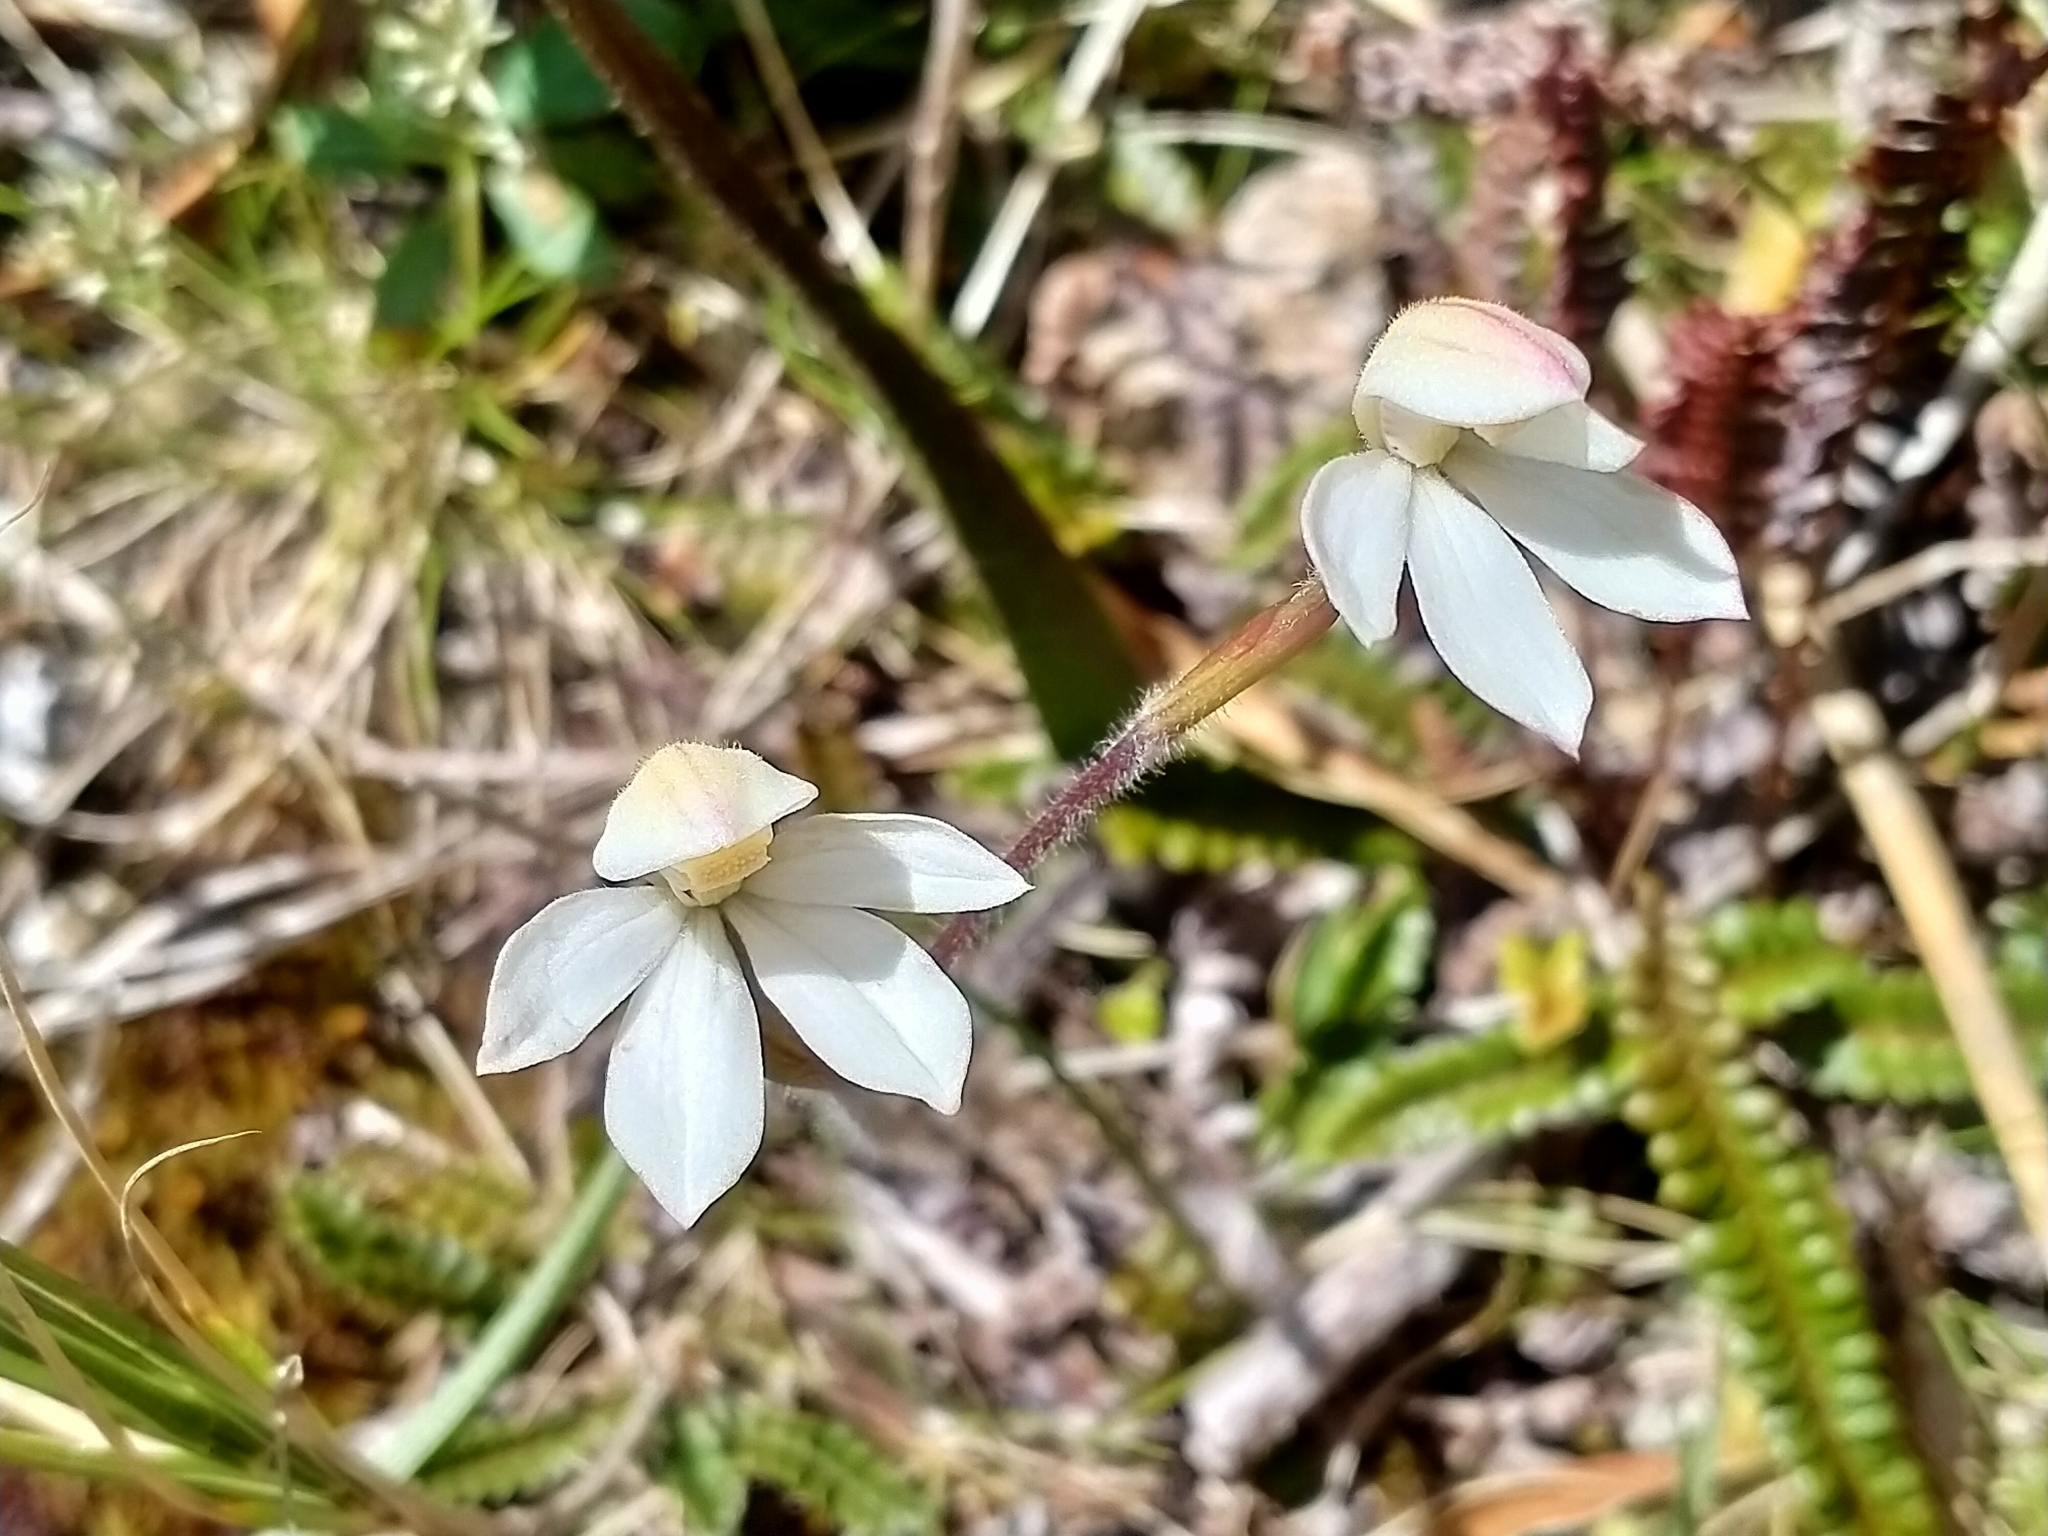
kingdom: Plantae
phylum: Tracheophyta
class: Liliopsida
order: Asparagales
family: Orchidaceae
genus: Caladenia
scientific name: Caladenia lyallii
